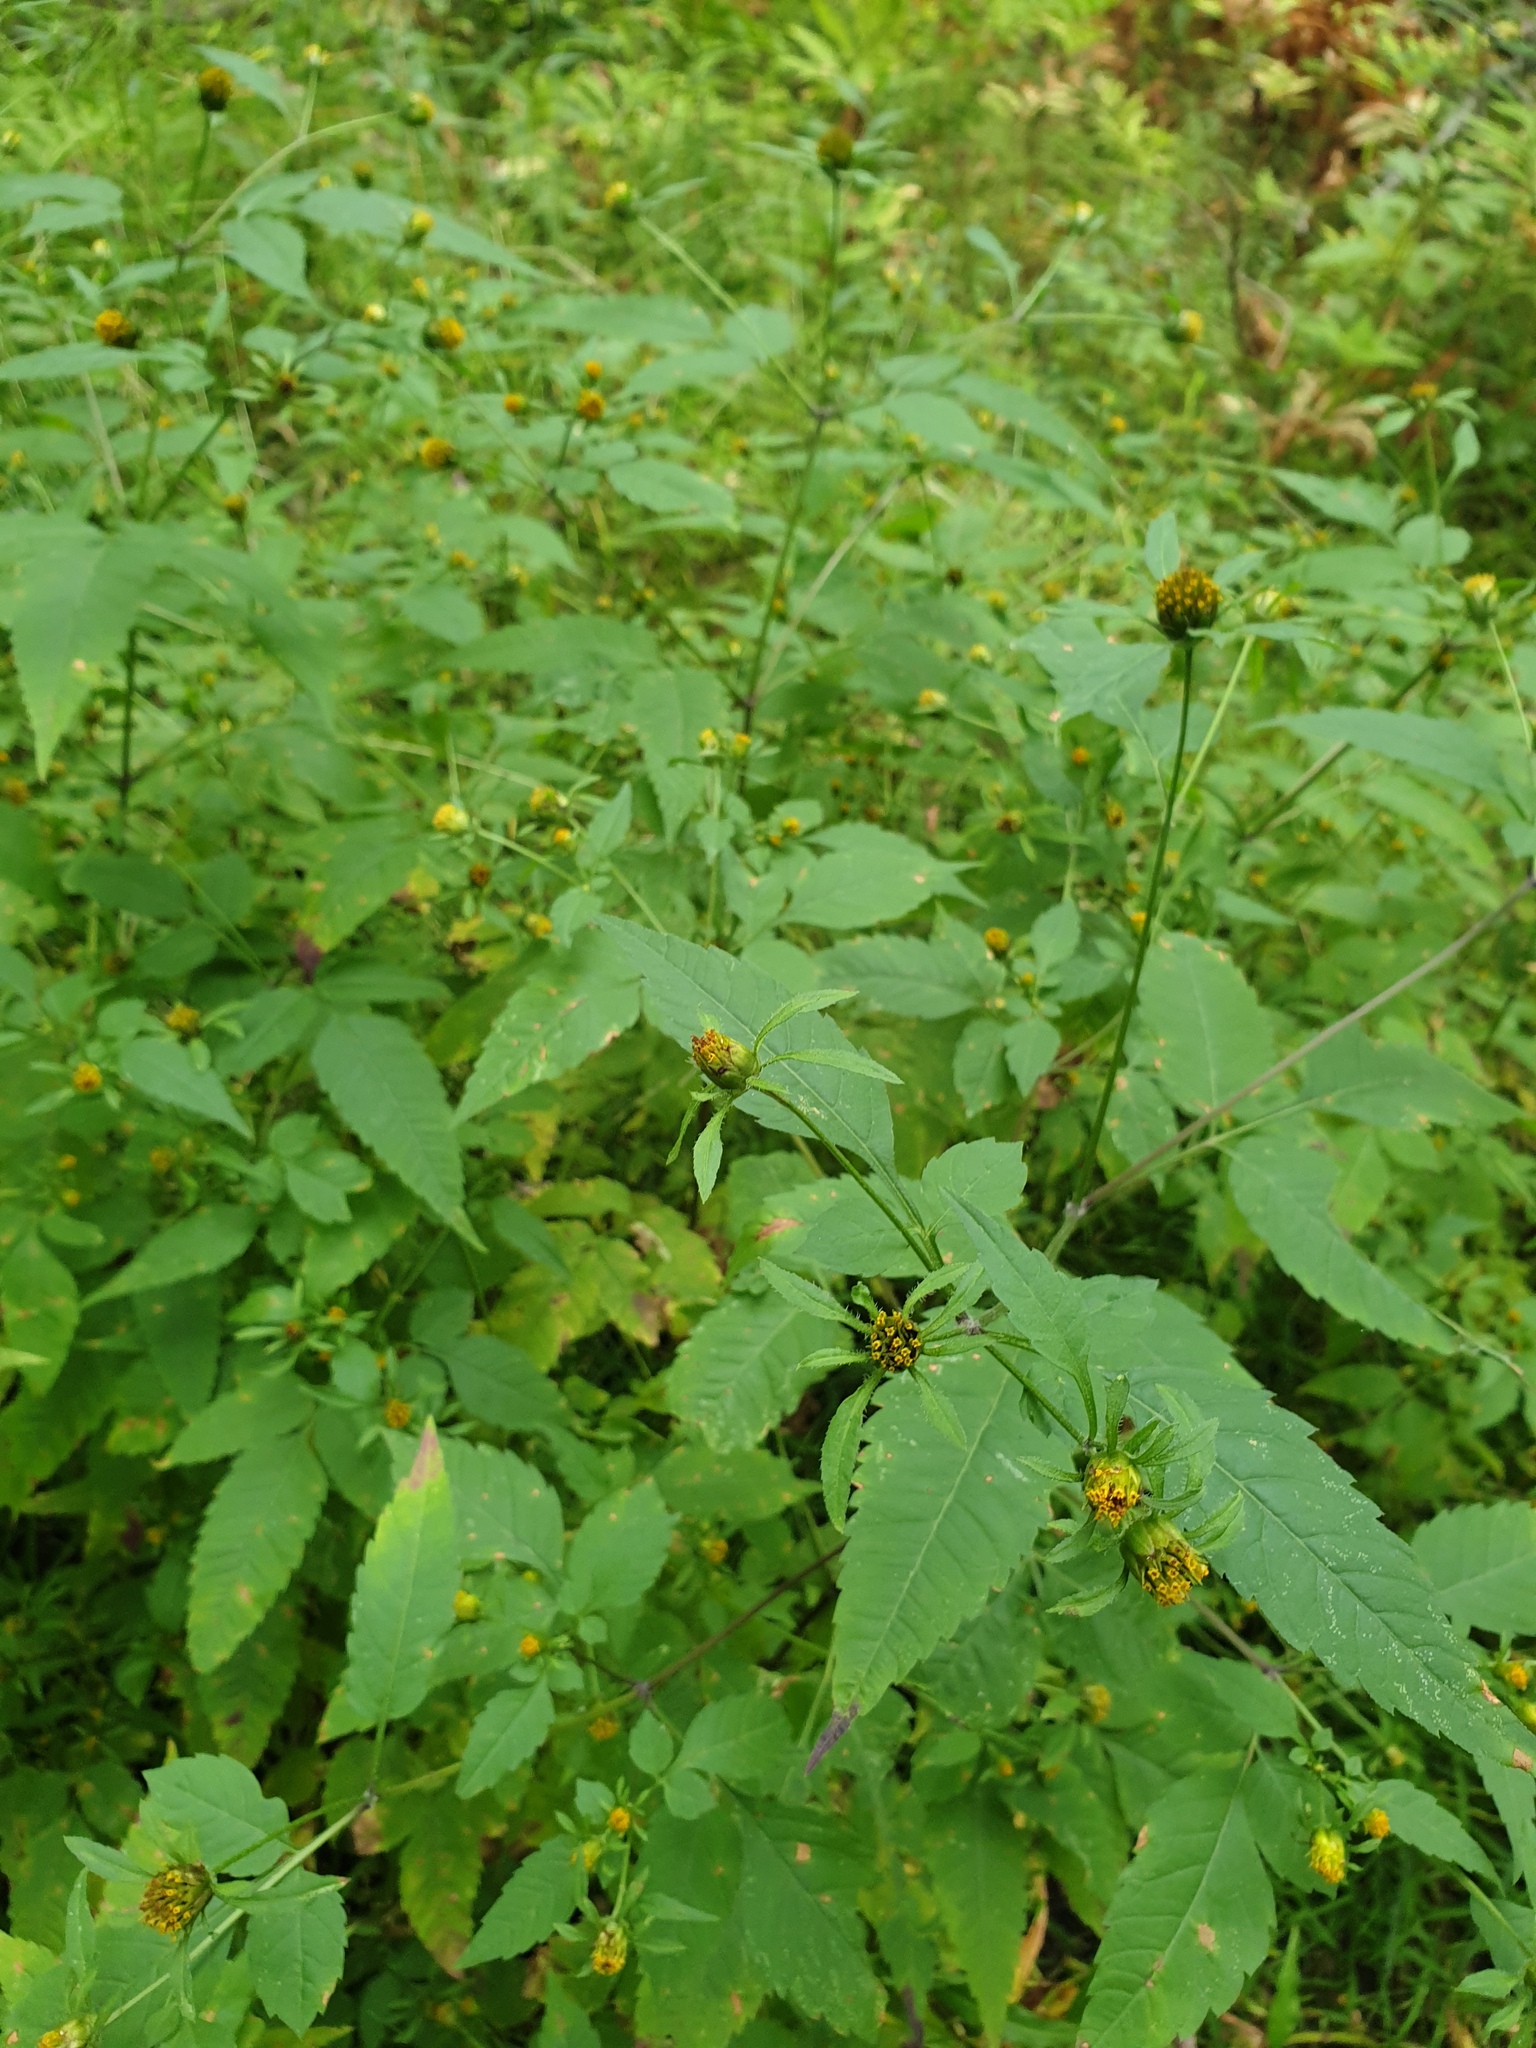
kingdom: Plantae
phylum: Tracheophyta
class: Magnoliopsida
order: Asterales
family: Asteraceae
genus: Bidens
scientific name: Bidens frondosa
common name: Beggarticks
